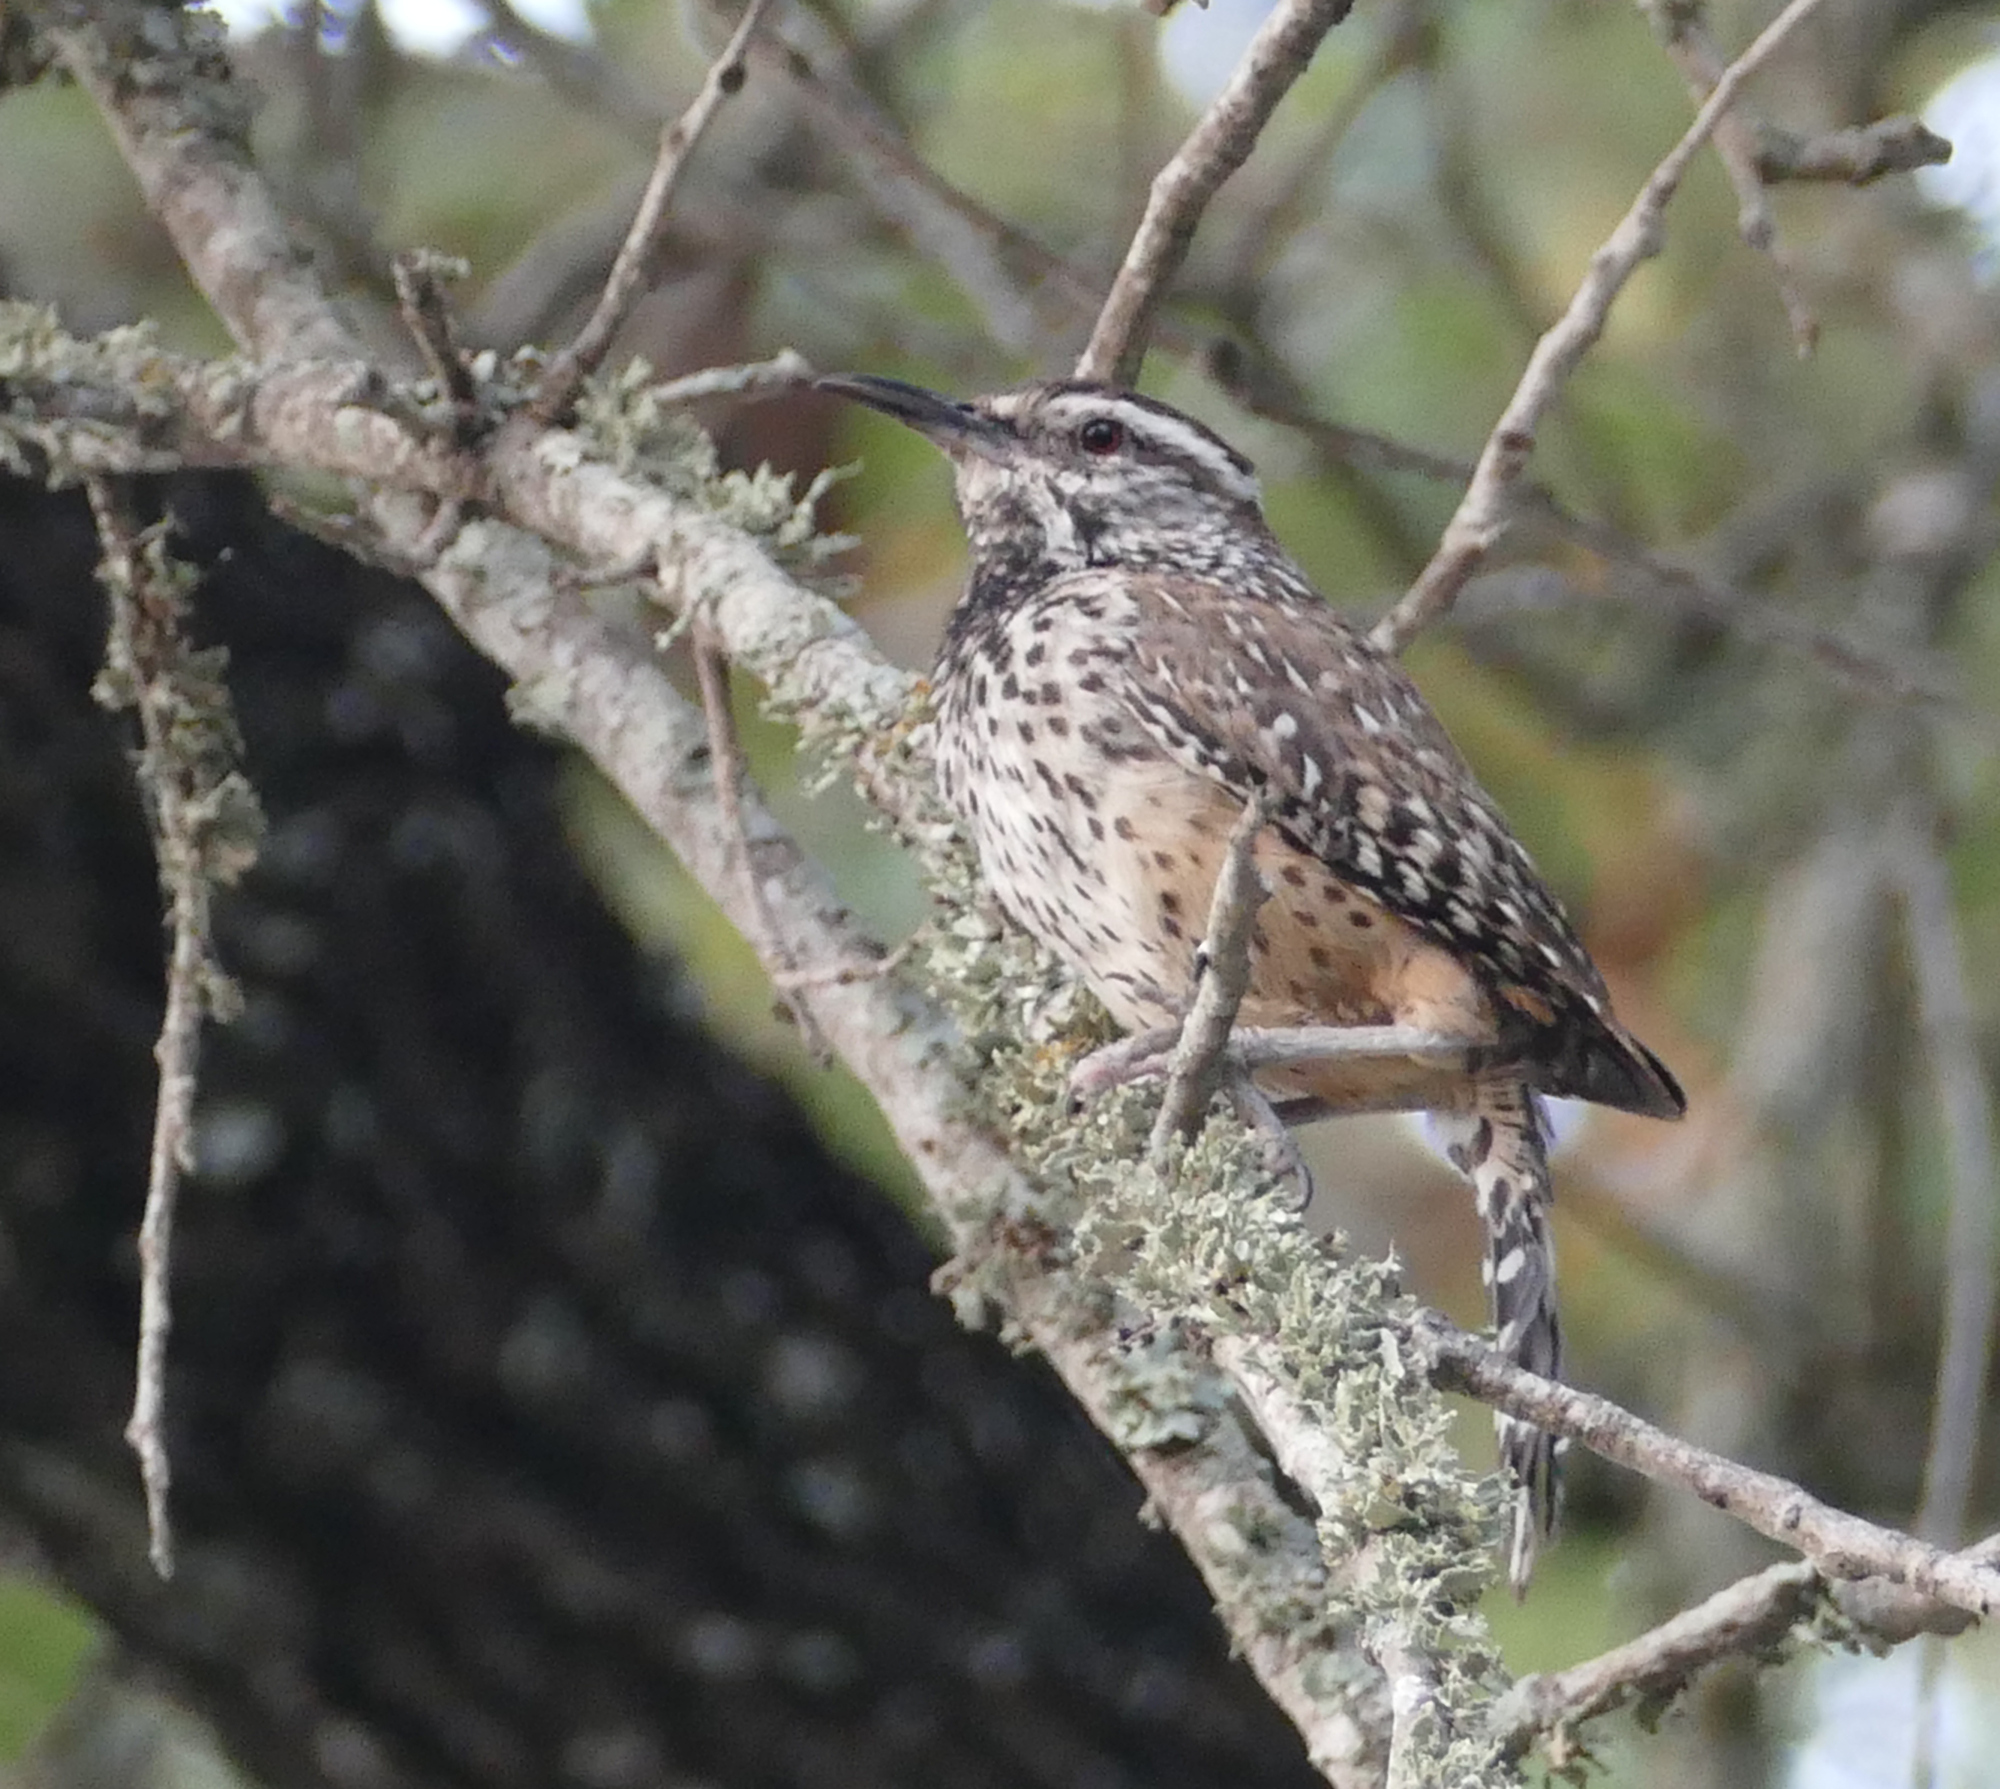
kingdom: Animalia
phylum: Chordata
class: Aves
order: Passeriformes
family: Troglodytidae
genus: Campylorhynchus
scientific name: Campylorhynchus brunneicapillus
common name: Cactus wren
